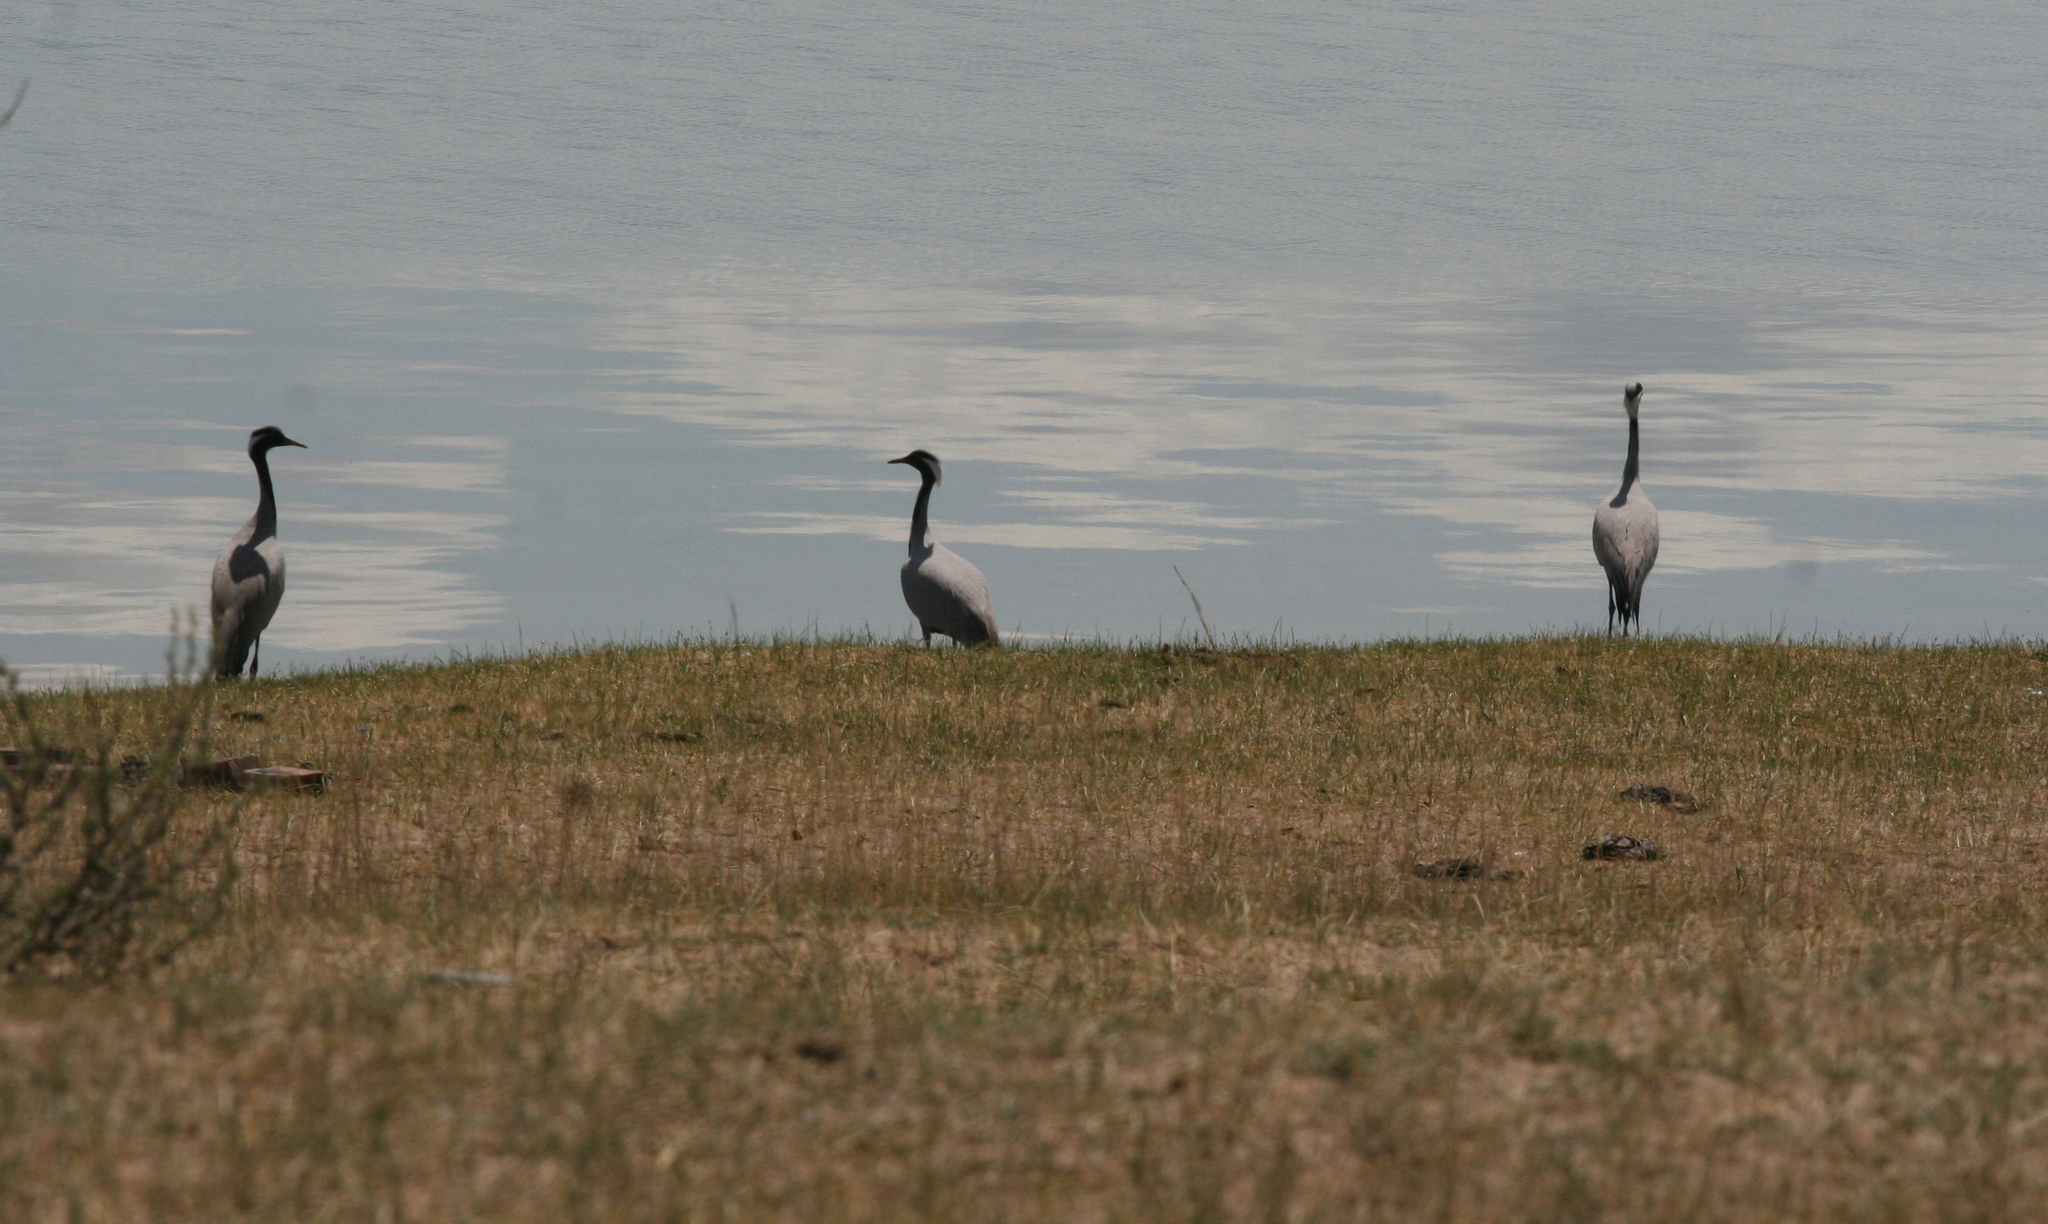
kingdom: Animalia
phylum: Chordata
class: Aves
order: Gruiformes
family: Gruidae
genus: Anthropoides
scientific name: Anthropoides virgo
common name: Demoiselle crane
